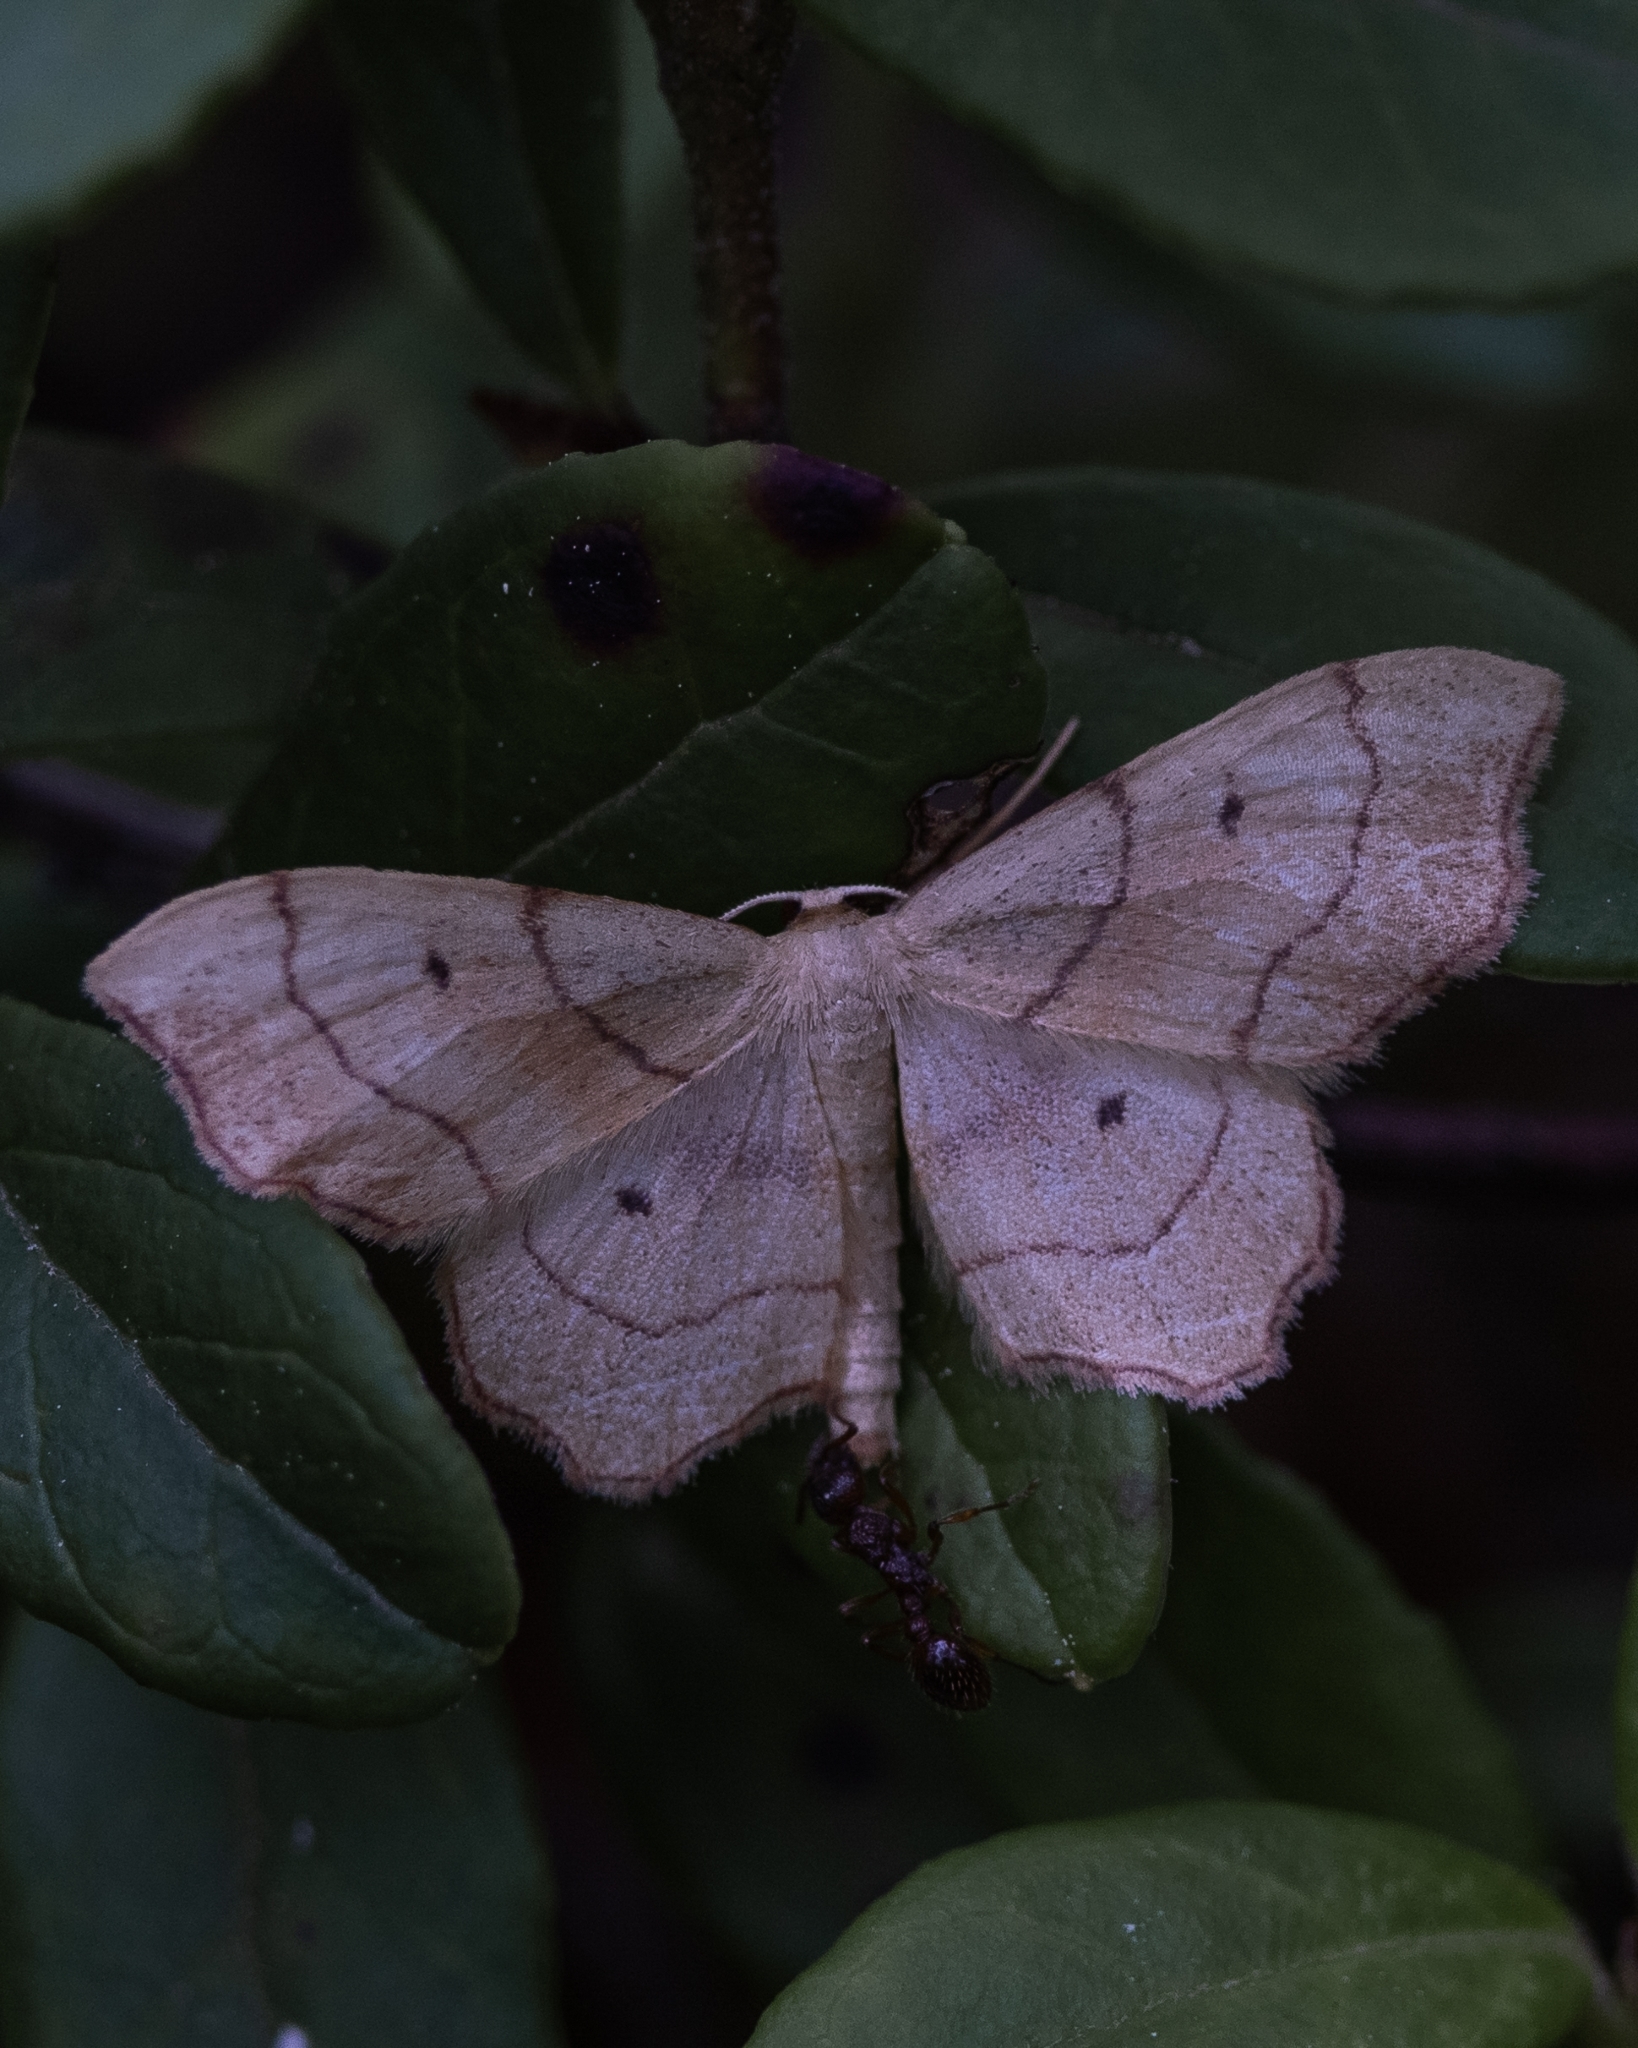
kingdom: Animalia
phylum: Arthropoda
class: Insecta
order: Lepidoptera
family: Geometridae
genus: Idaea
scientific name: Idaea emarginata
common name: Small scallop
